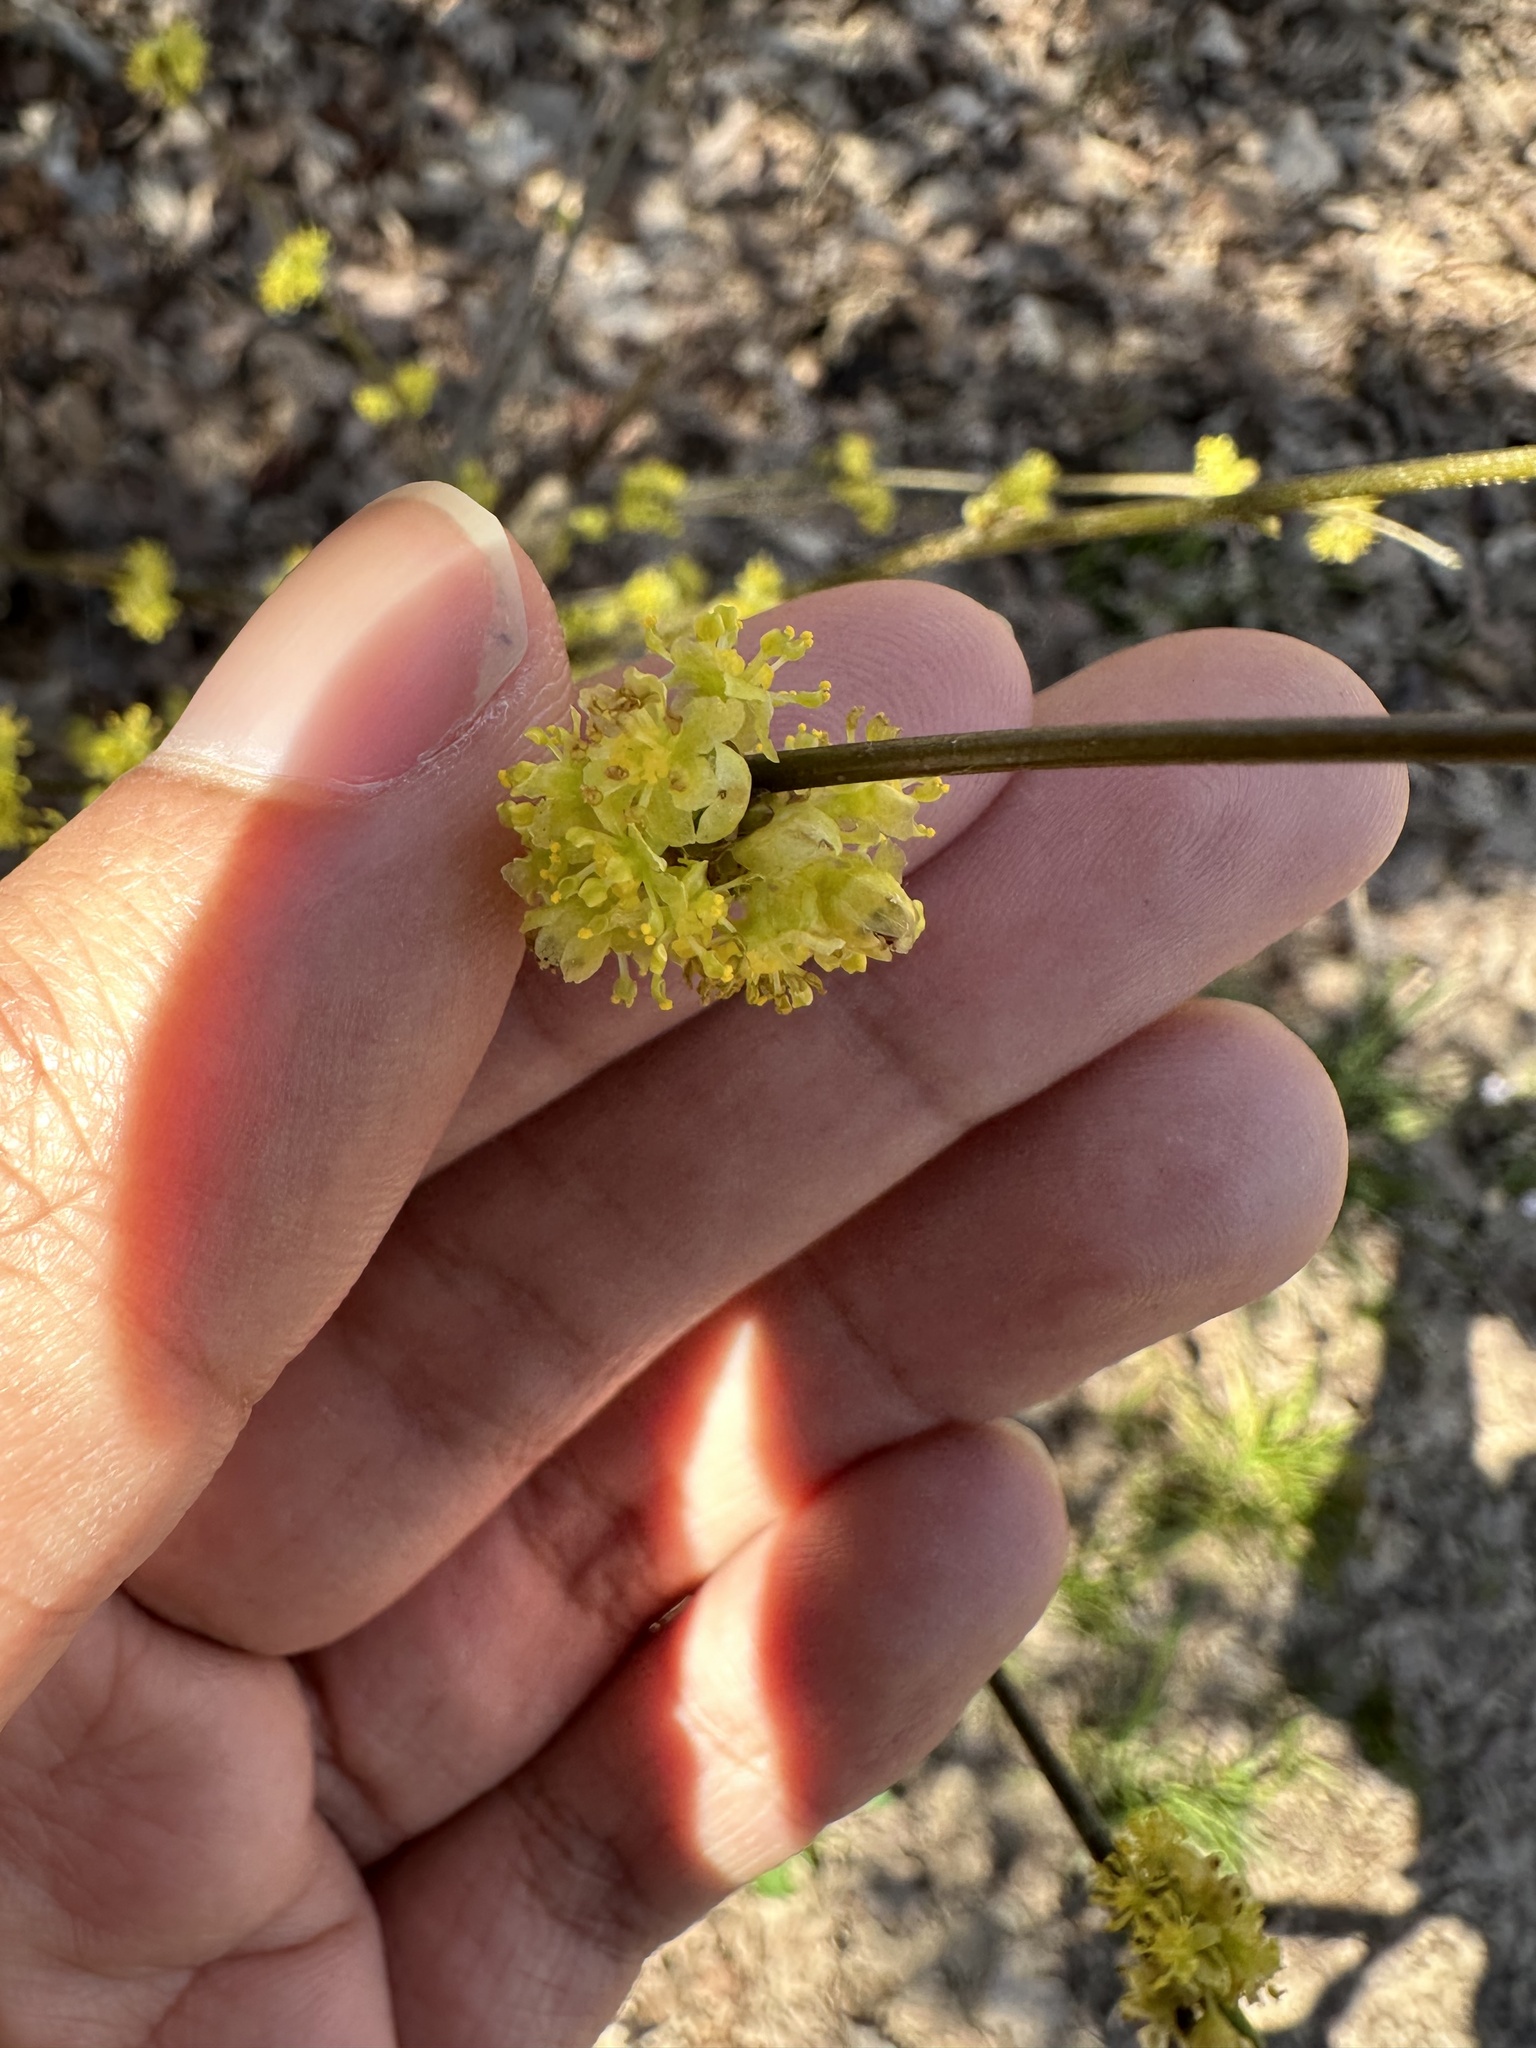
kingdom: Plantae
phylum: Tracheophyta
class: Magnoliopsida
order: Laurales
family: Lauraceae
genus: Lindera
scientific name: Lindera benzoin
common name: Spicebush
